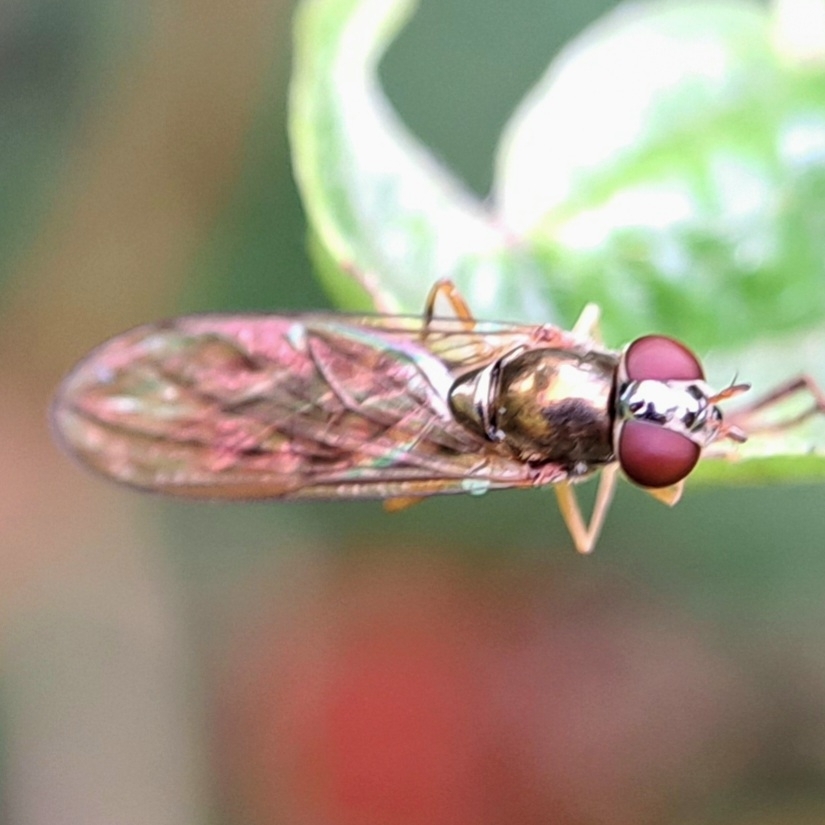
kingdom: Animalia
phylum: Arthropoda
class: Insecta
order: Diptera
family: Syrphidae
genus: Melanostoma
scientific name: Melanostoma scalare
